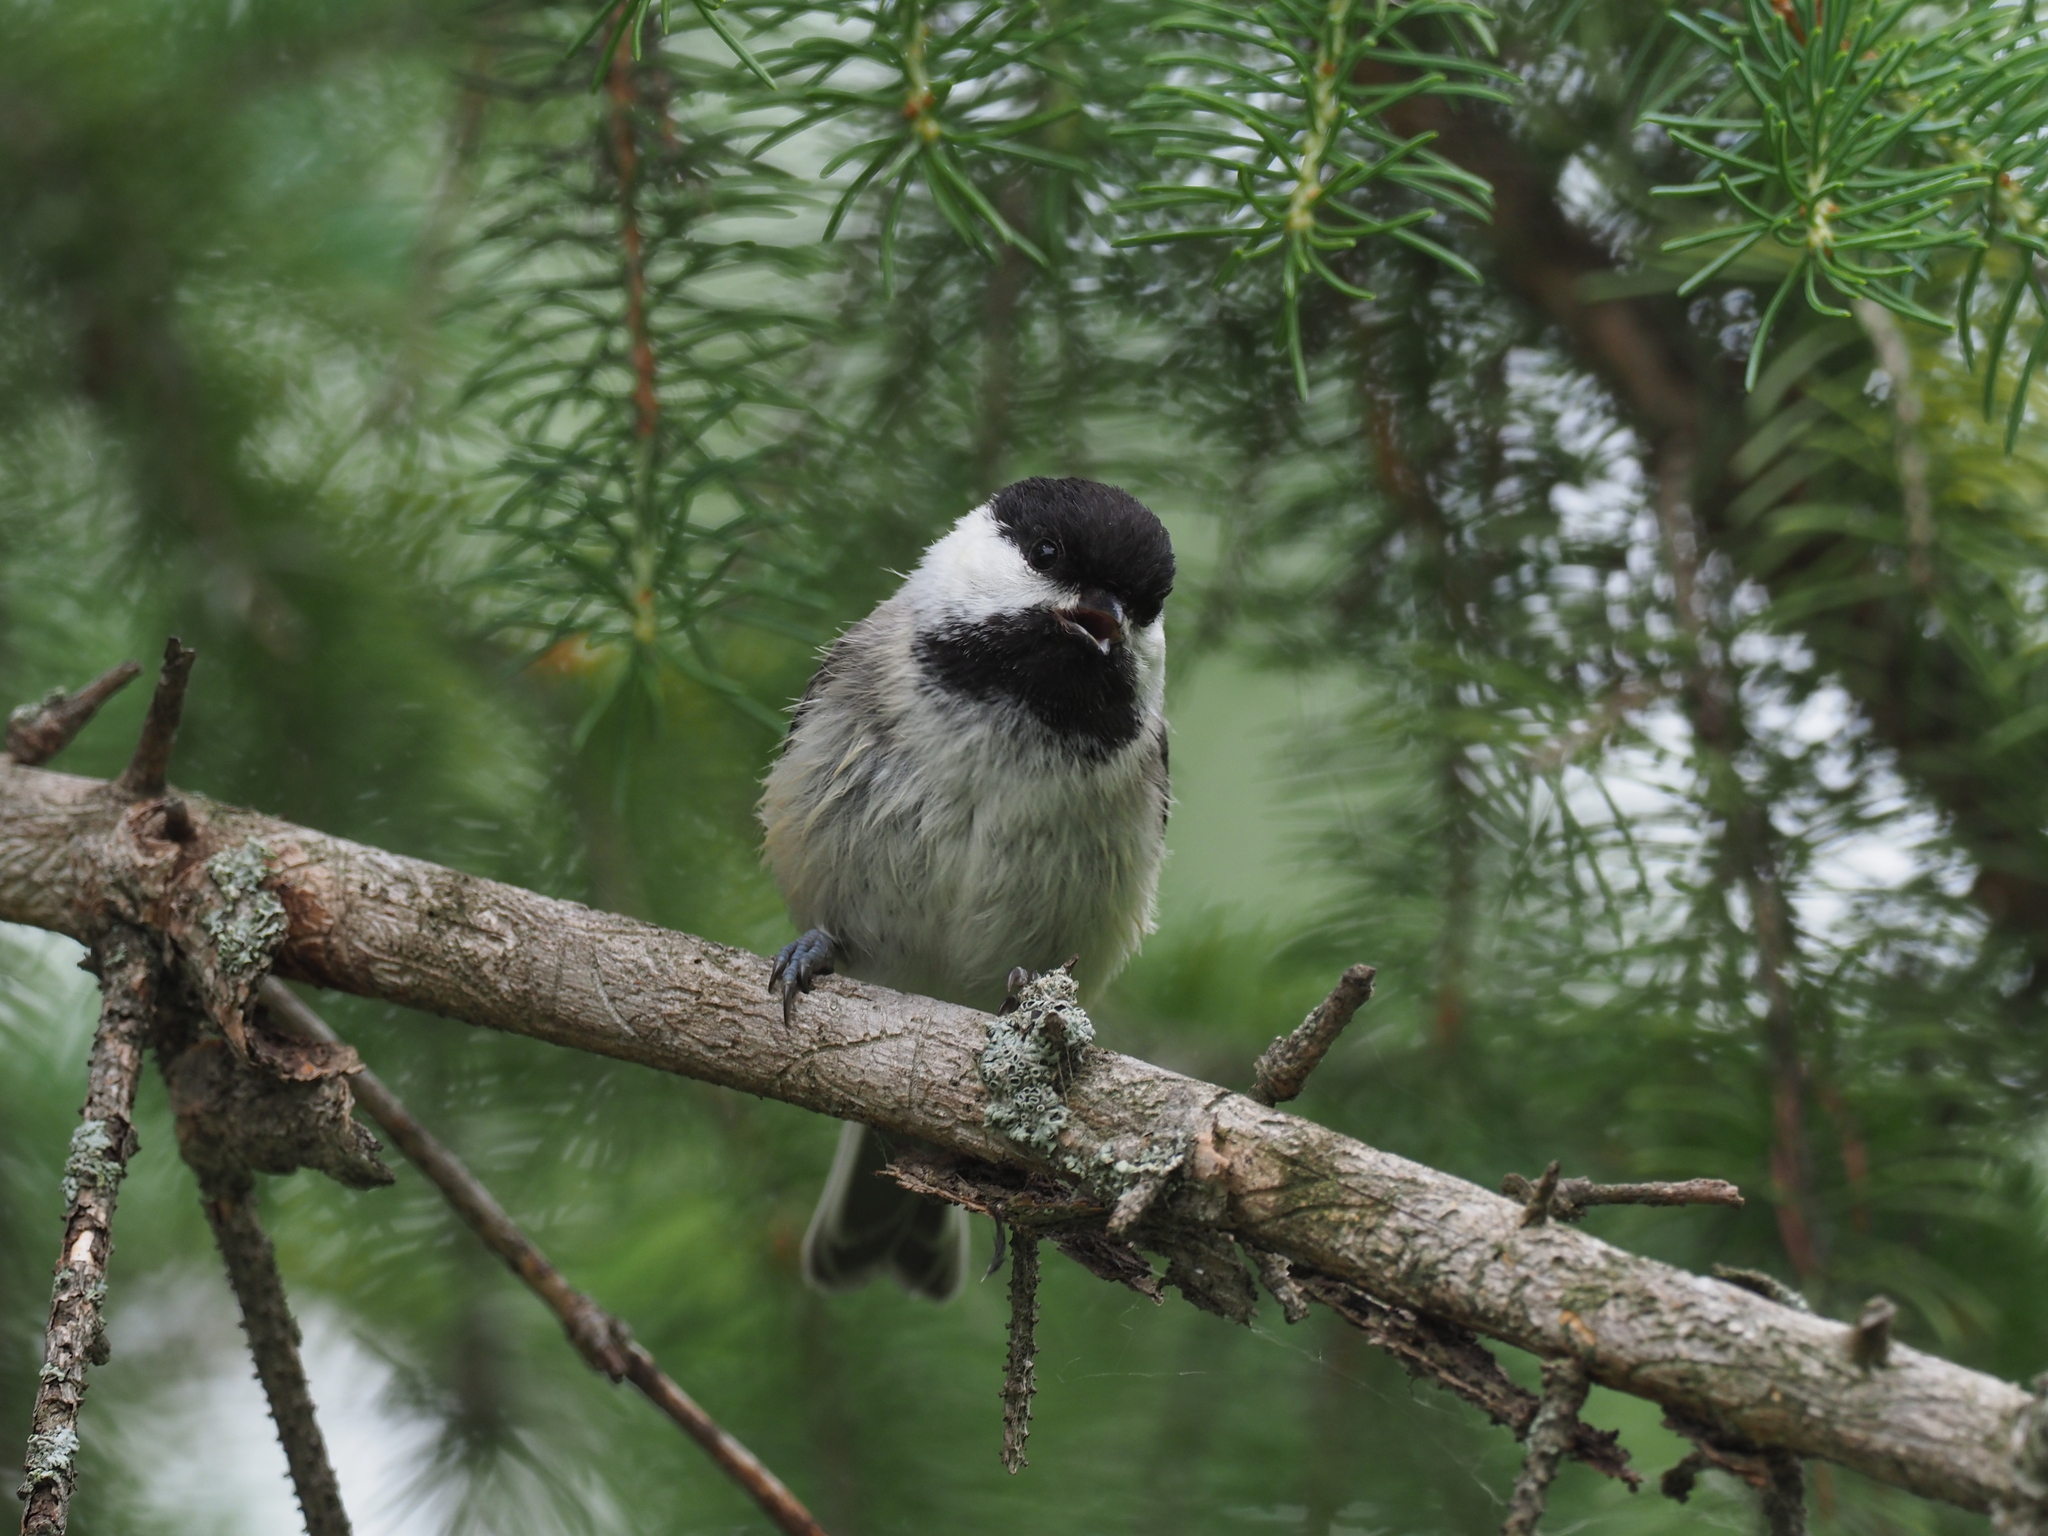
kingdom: Animalia
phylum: Chordata
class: Aves
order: Passeriformes
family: Paridae
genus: Poecile
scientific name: Poecile atricapillus
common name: Black-capped chickadee
